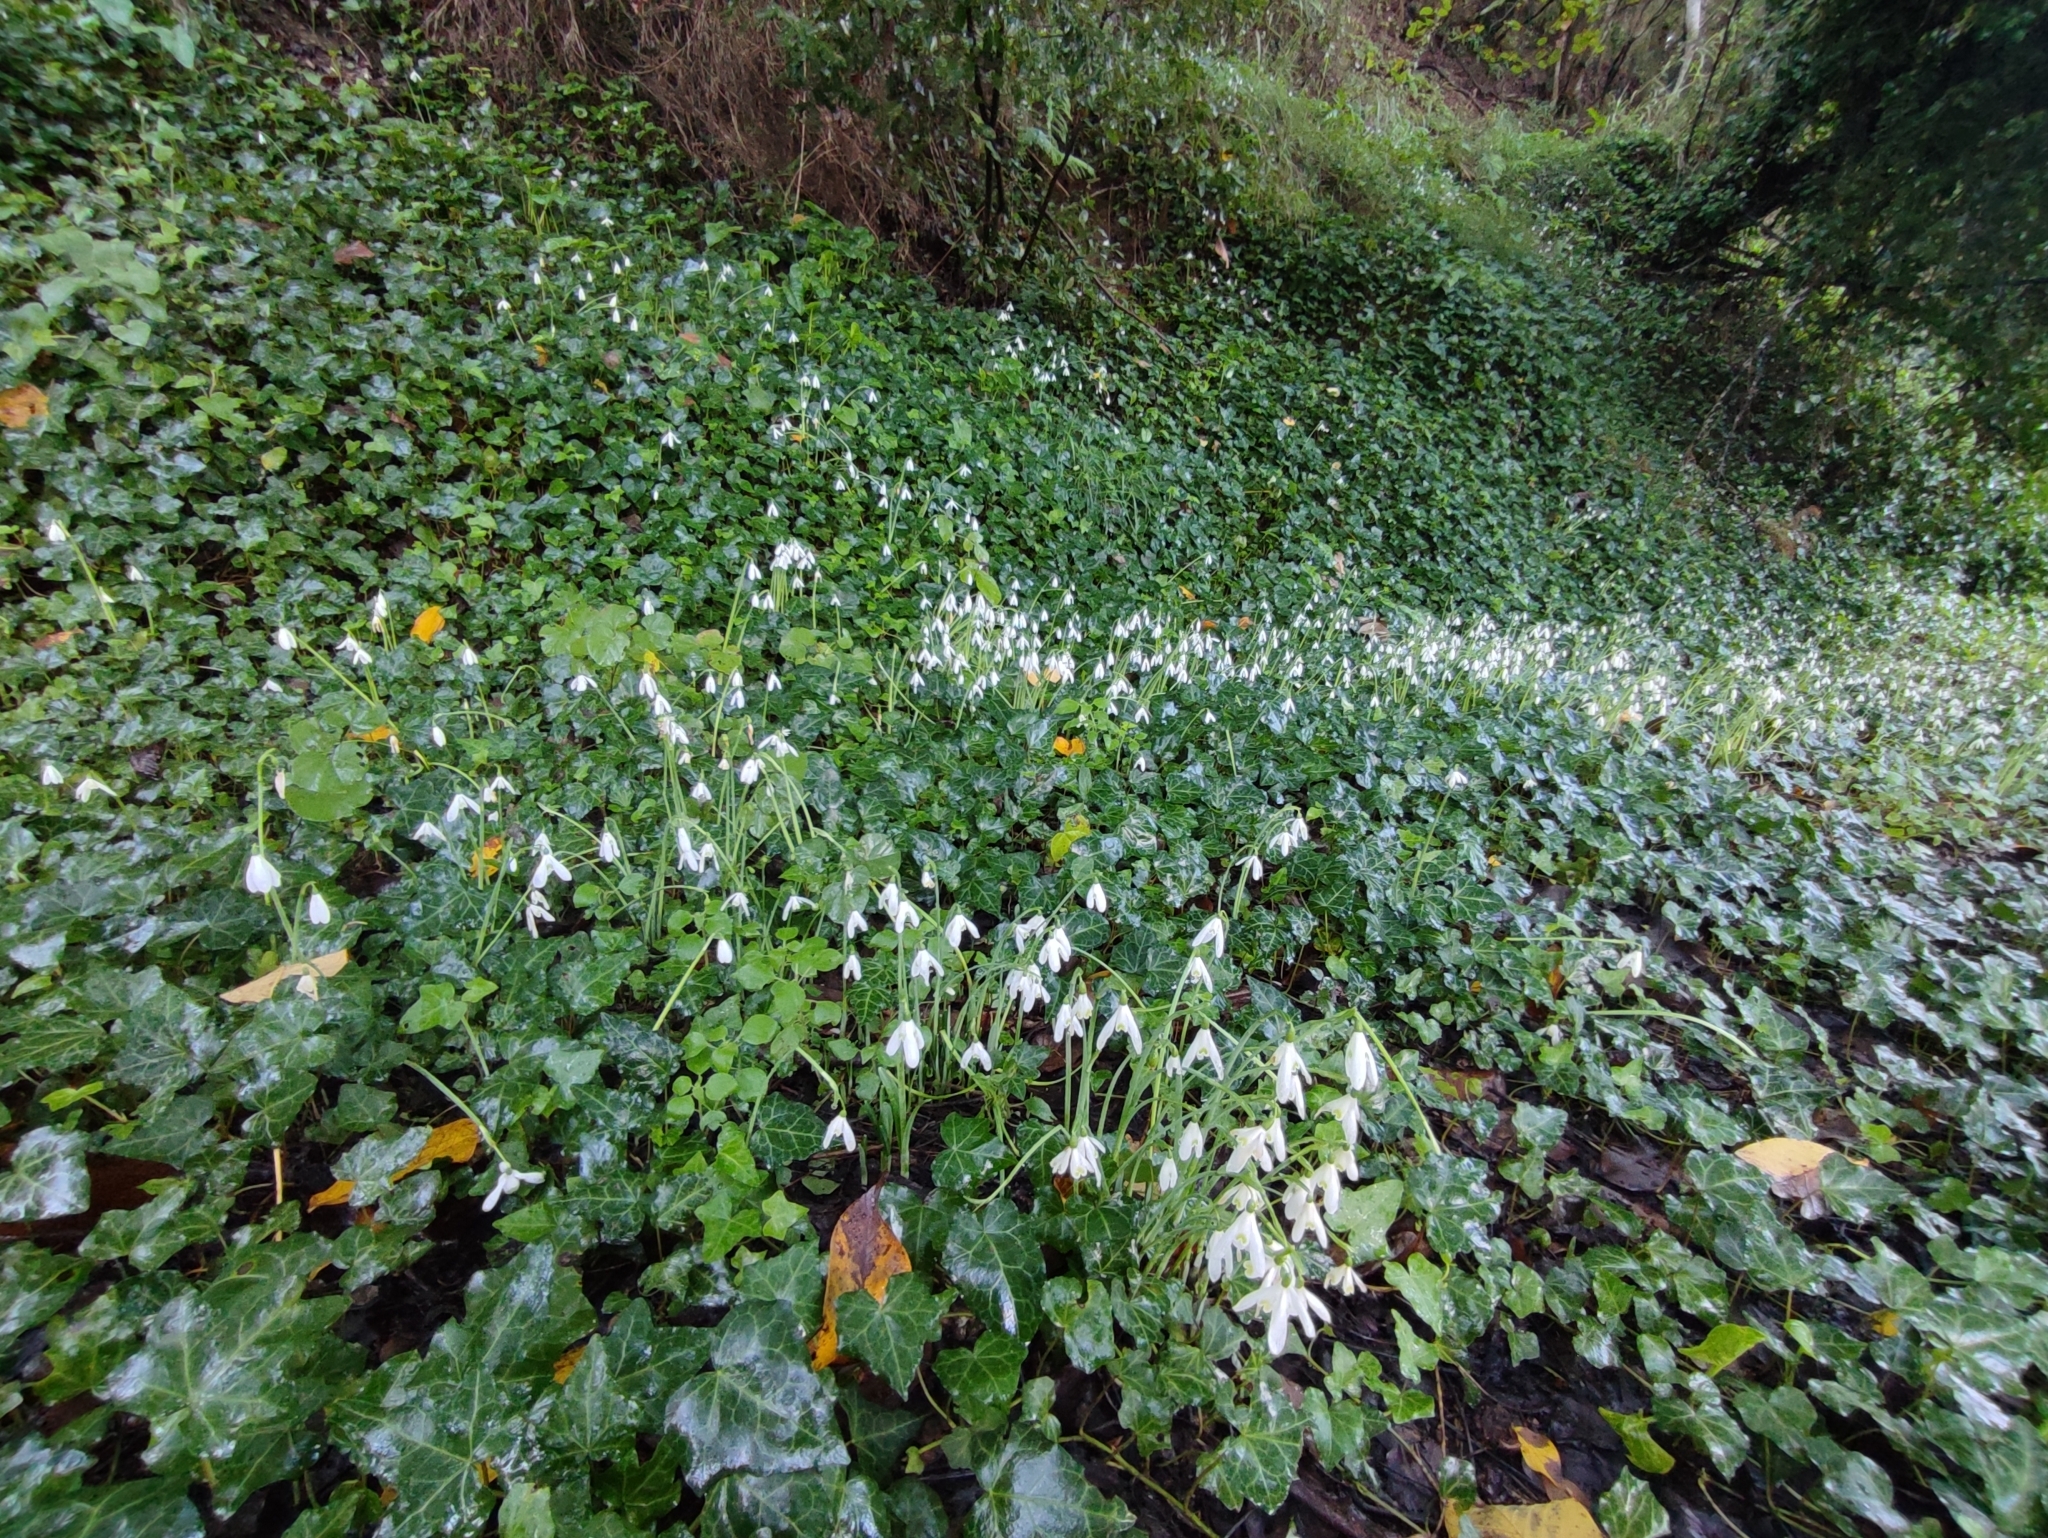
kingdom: Plantae
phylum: Tracheophyta
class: Liliopsida
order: Asparagales
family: Amaryllidaceae
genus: Galanthus
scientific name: Galanthus reginae-olgae
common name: Queen olga's snowdrop
